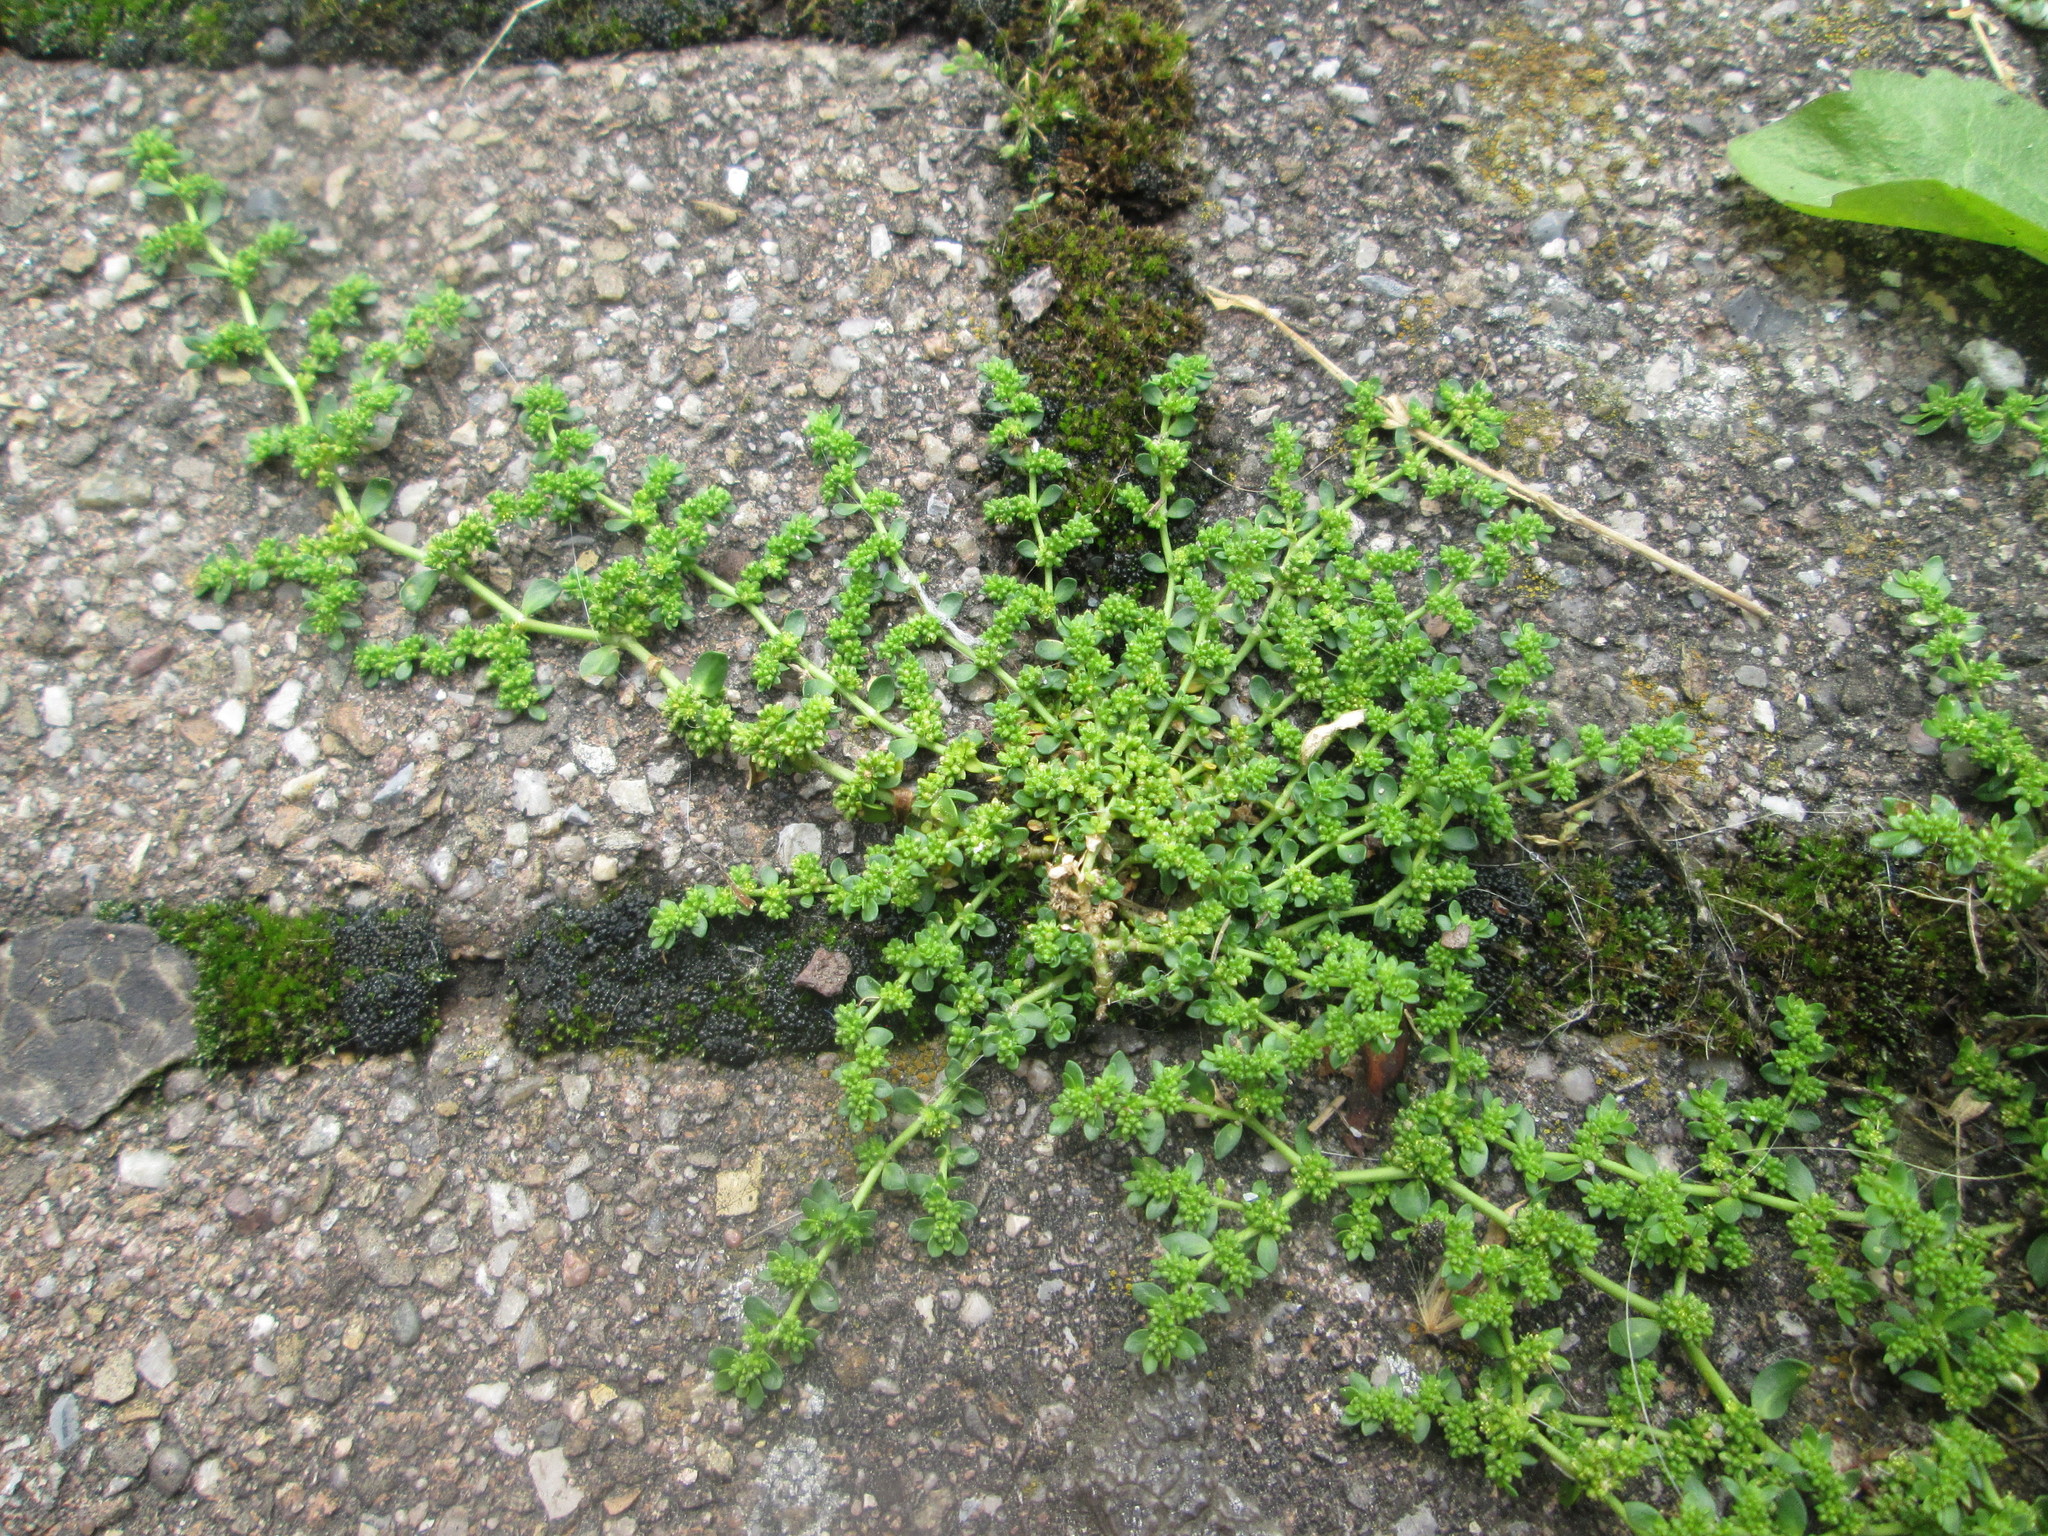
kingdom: Plantae
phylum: Tracheophyta
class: Magnoliopsida
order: Caryophyllales
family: Caryophyllaceae
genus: Herniaria
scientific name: Herniaria glabra
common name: Smooth rupturewort
